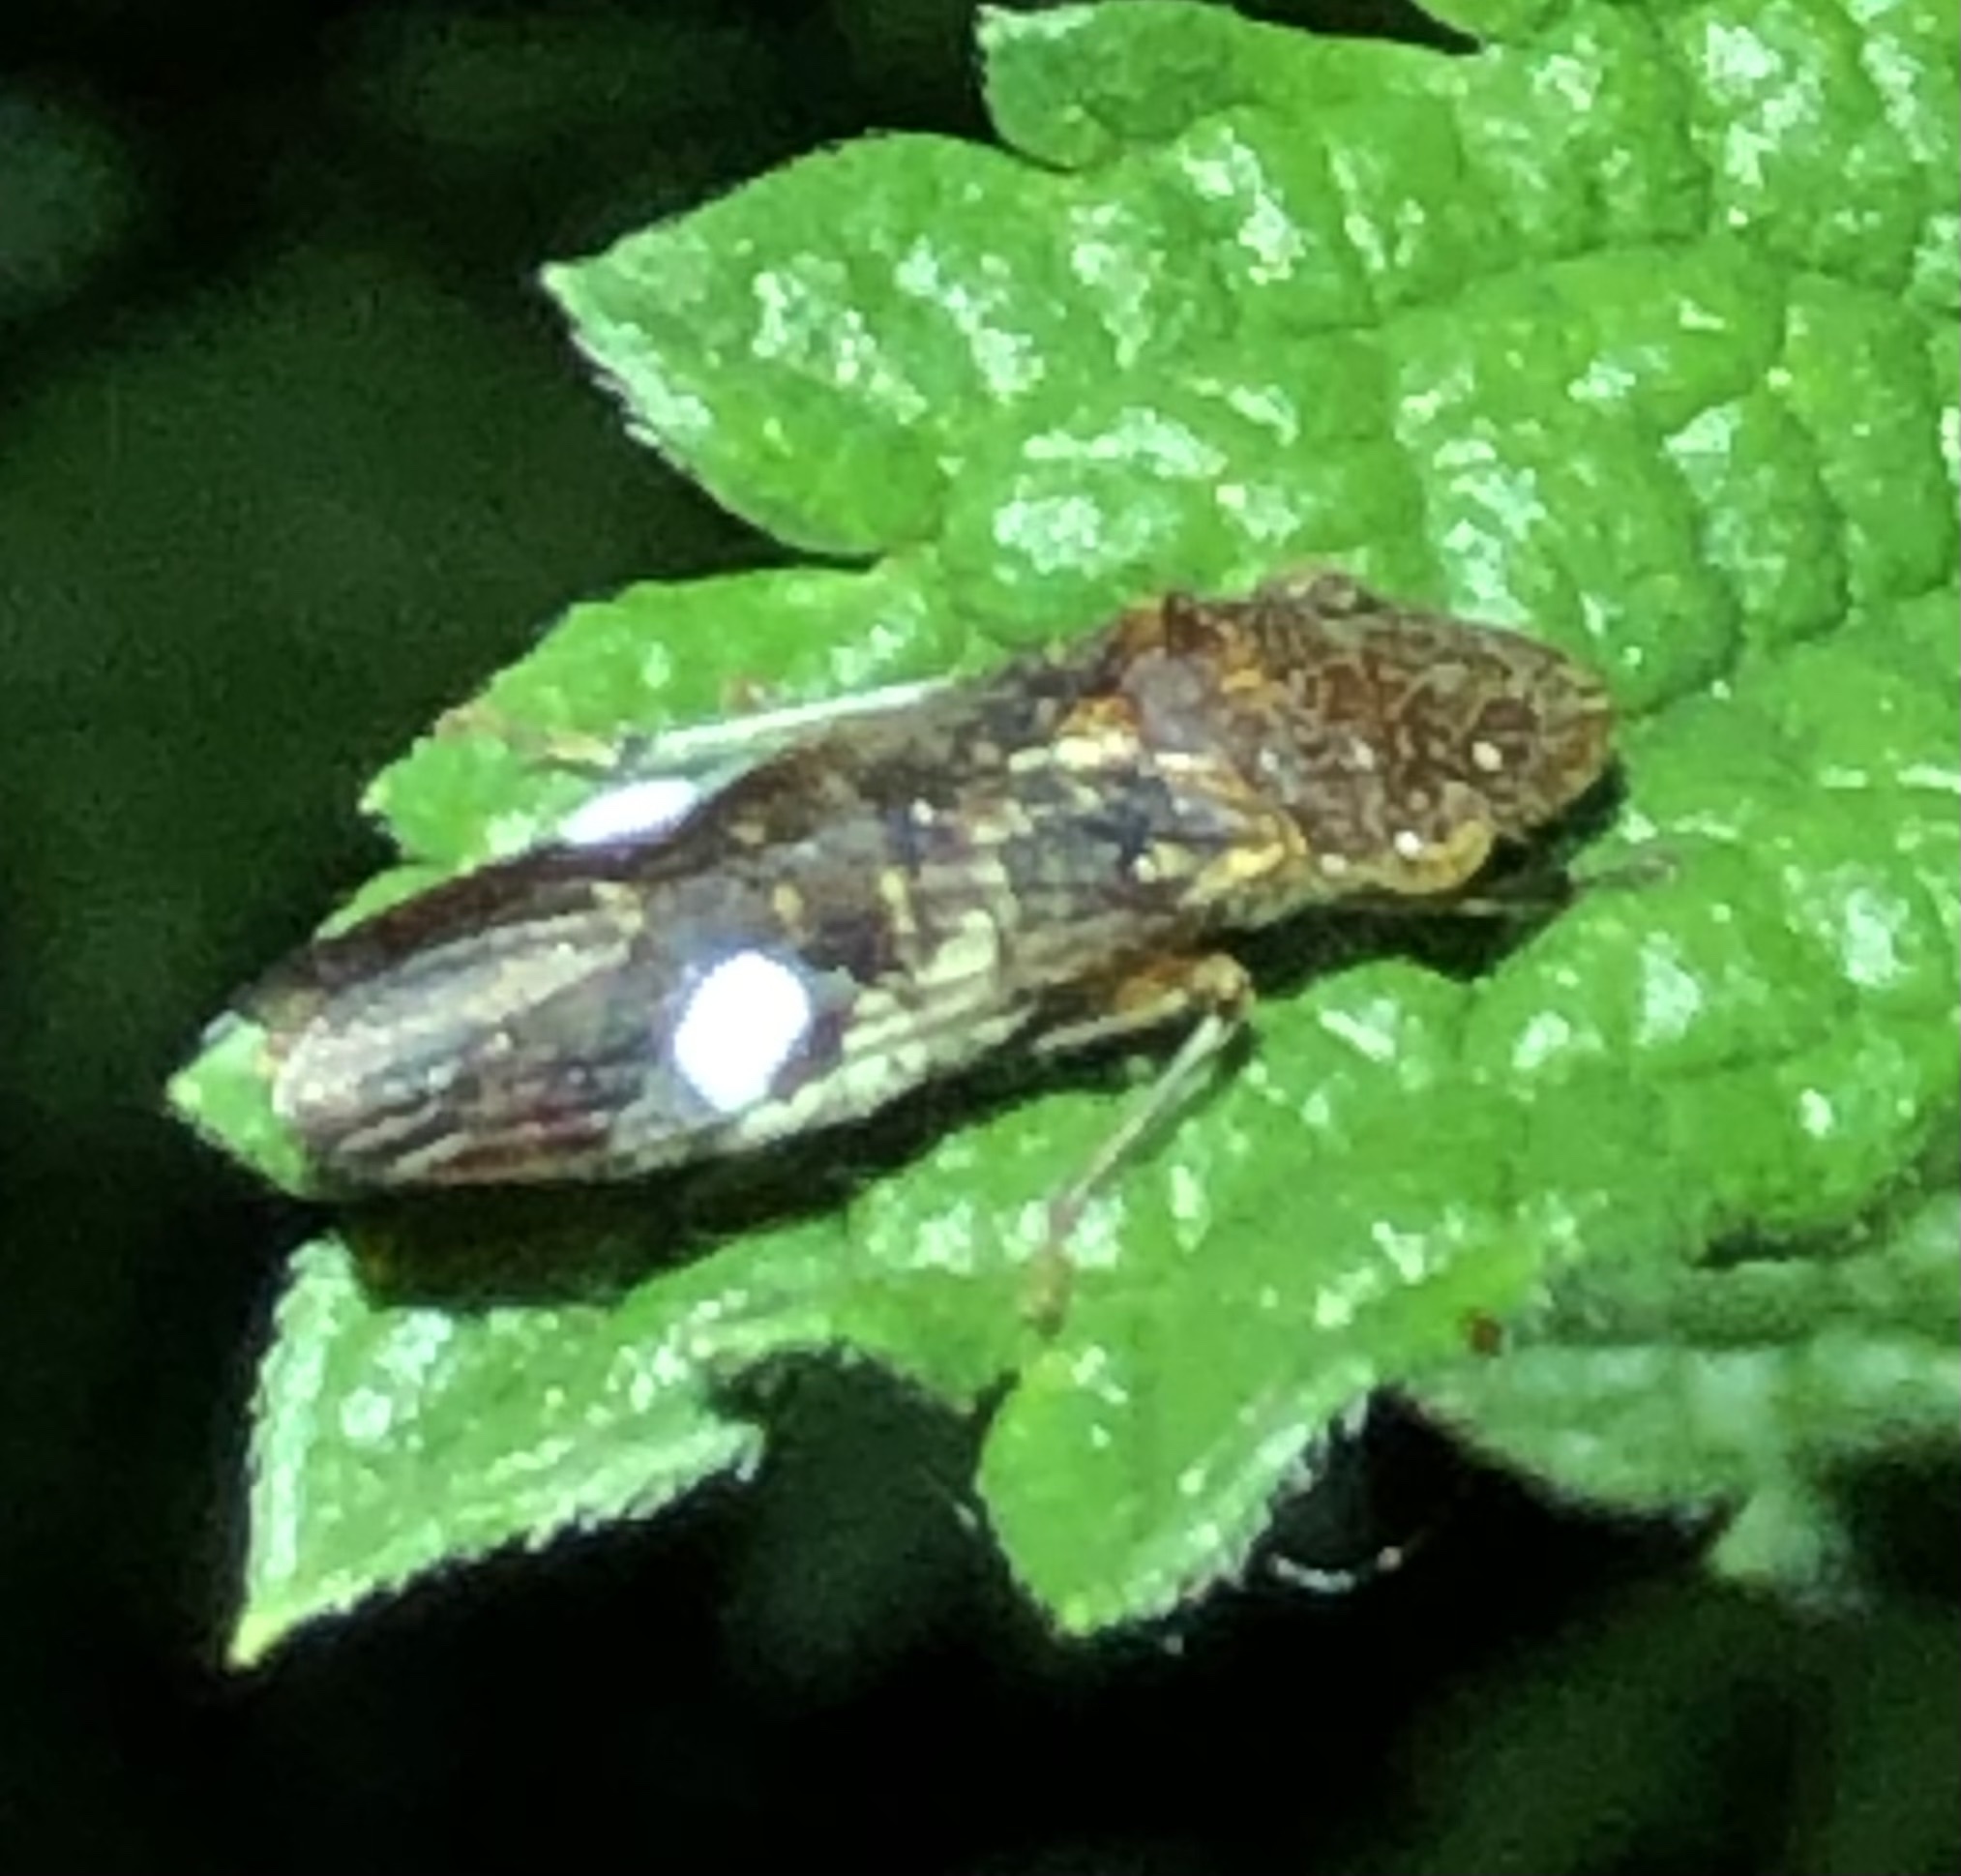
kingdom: Animalia
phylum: Arthropoda
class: Insecta
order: Hemiptera
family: Cicadellidae
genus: Homalodisca
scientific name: Homalodisca vitripennis
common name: Glassy-winged sharpshooter
